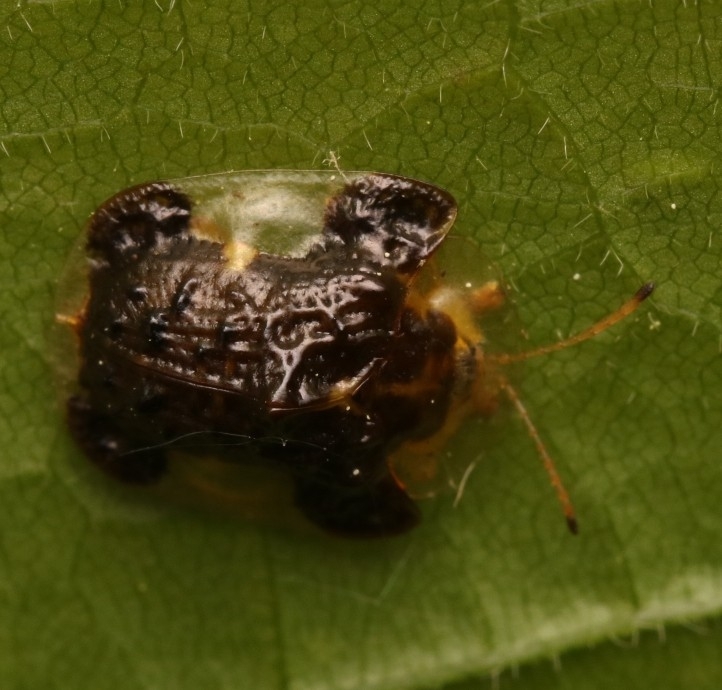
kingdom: Animalia
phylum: Arthropoda
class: Insecta
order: Coleoptera
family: Chrysomelidae
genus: Helocassis
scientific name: Helocassis clavata
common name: Clavate tortoise beetle
